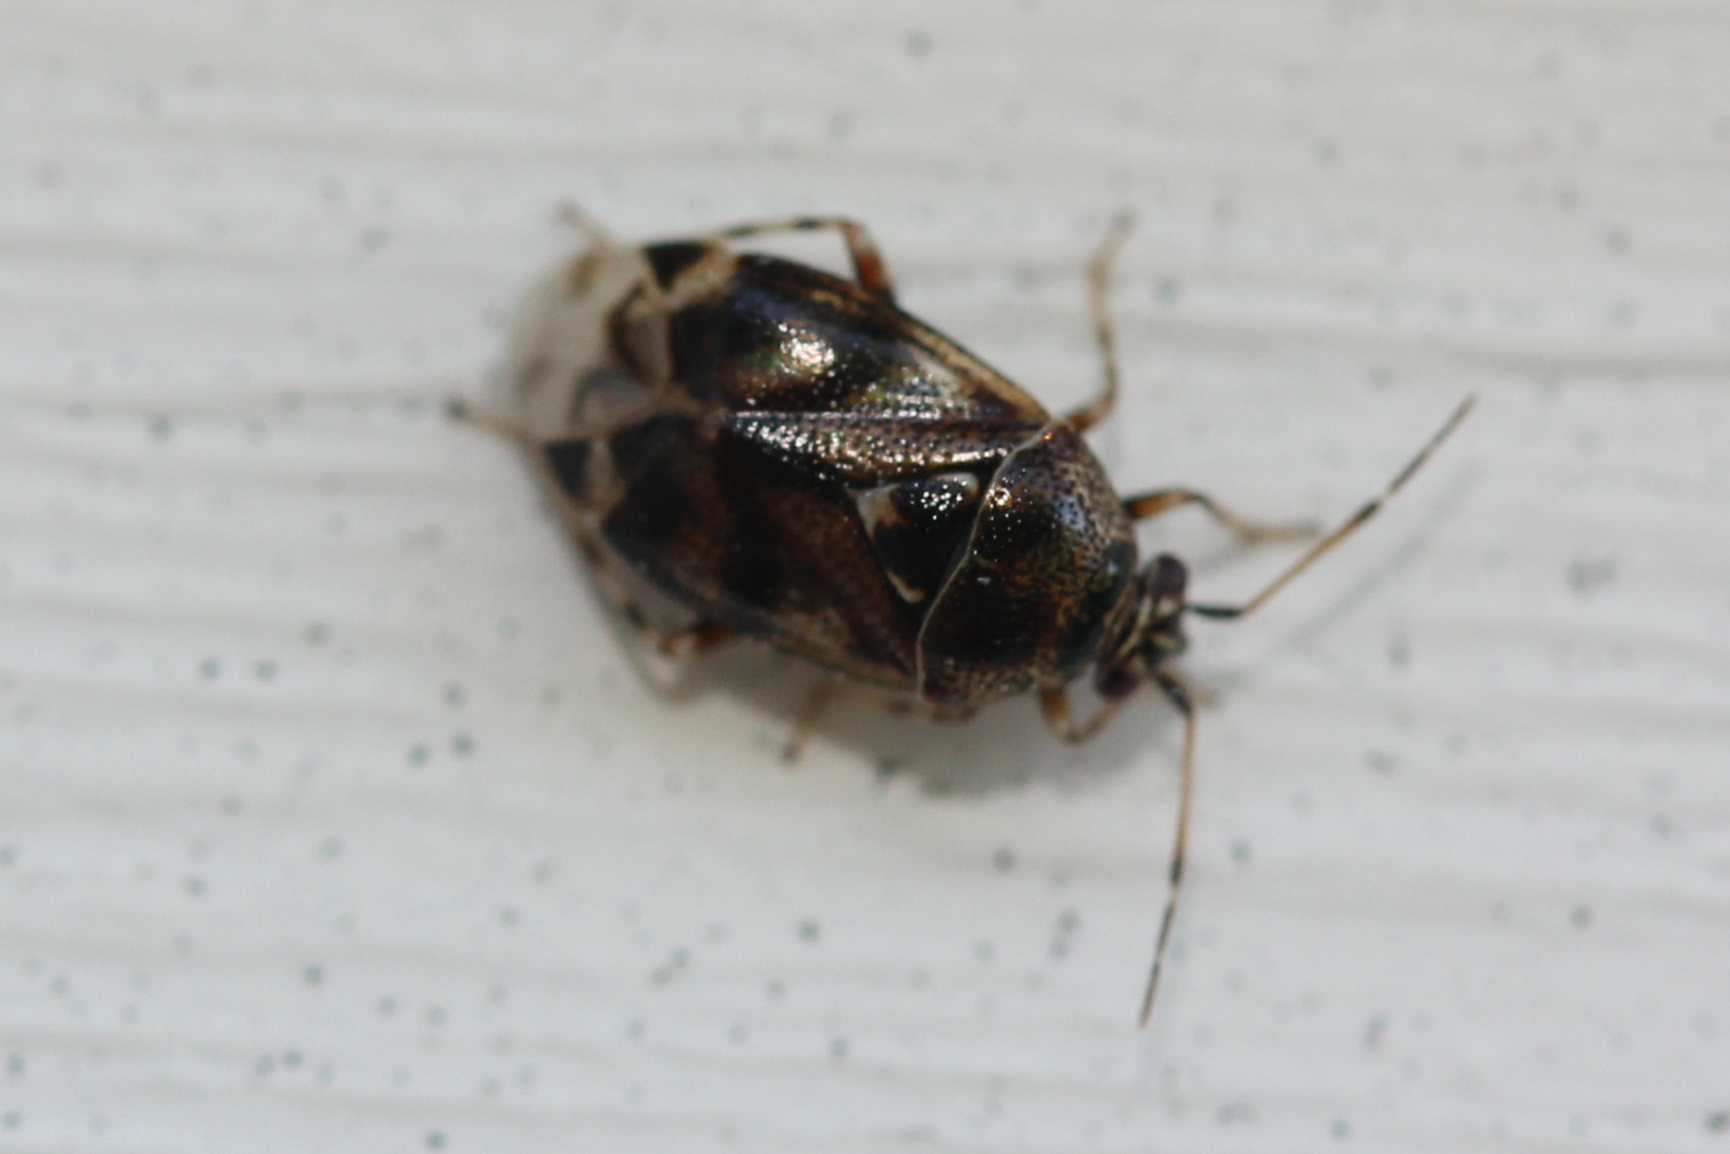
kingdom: Animalia
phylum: Arthropoda
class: Insecta
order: Hemiptera
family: Miridae
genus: Deraeocoris
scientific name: Deraeocoris nebulosus
